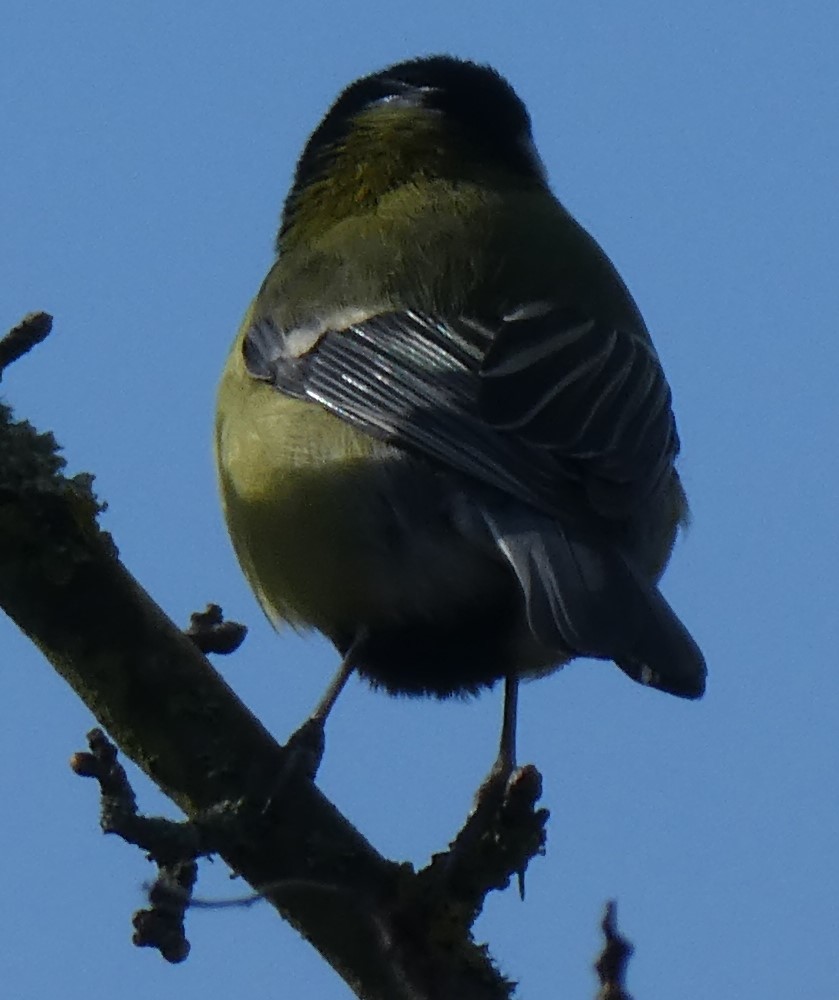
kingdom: Animalia
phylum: Chordata
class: Aves
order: Passeriformes
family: Paridae
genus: Parus
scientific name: Parus major
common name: Great tit
